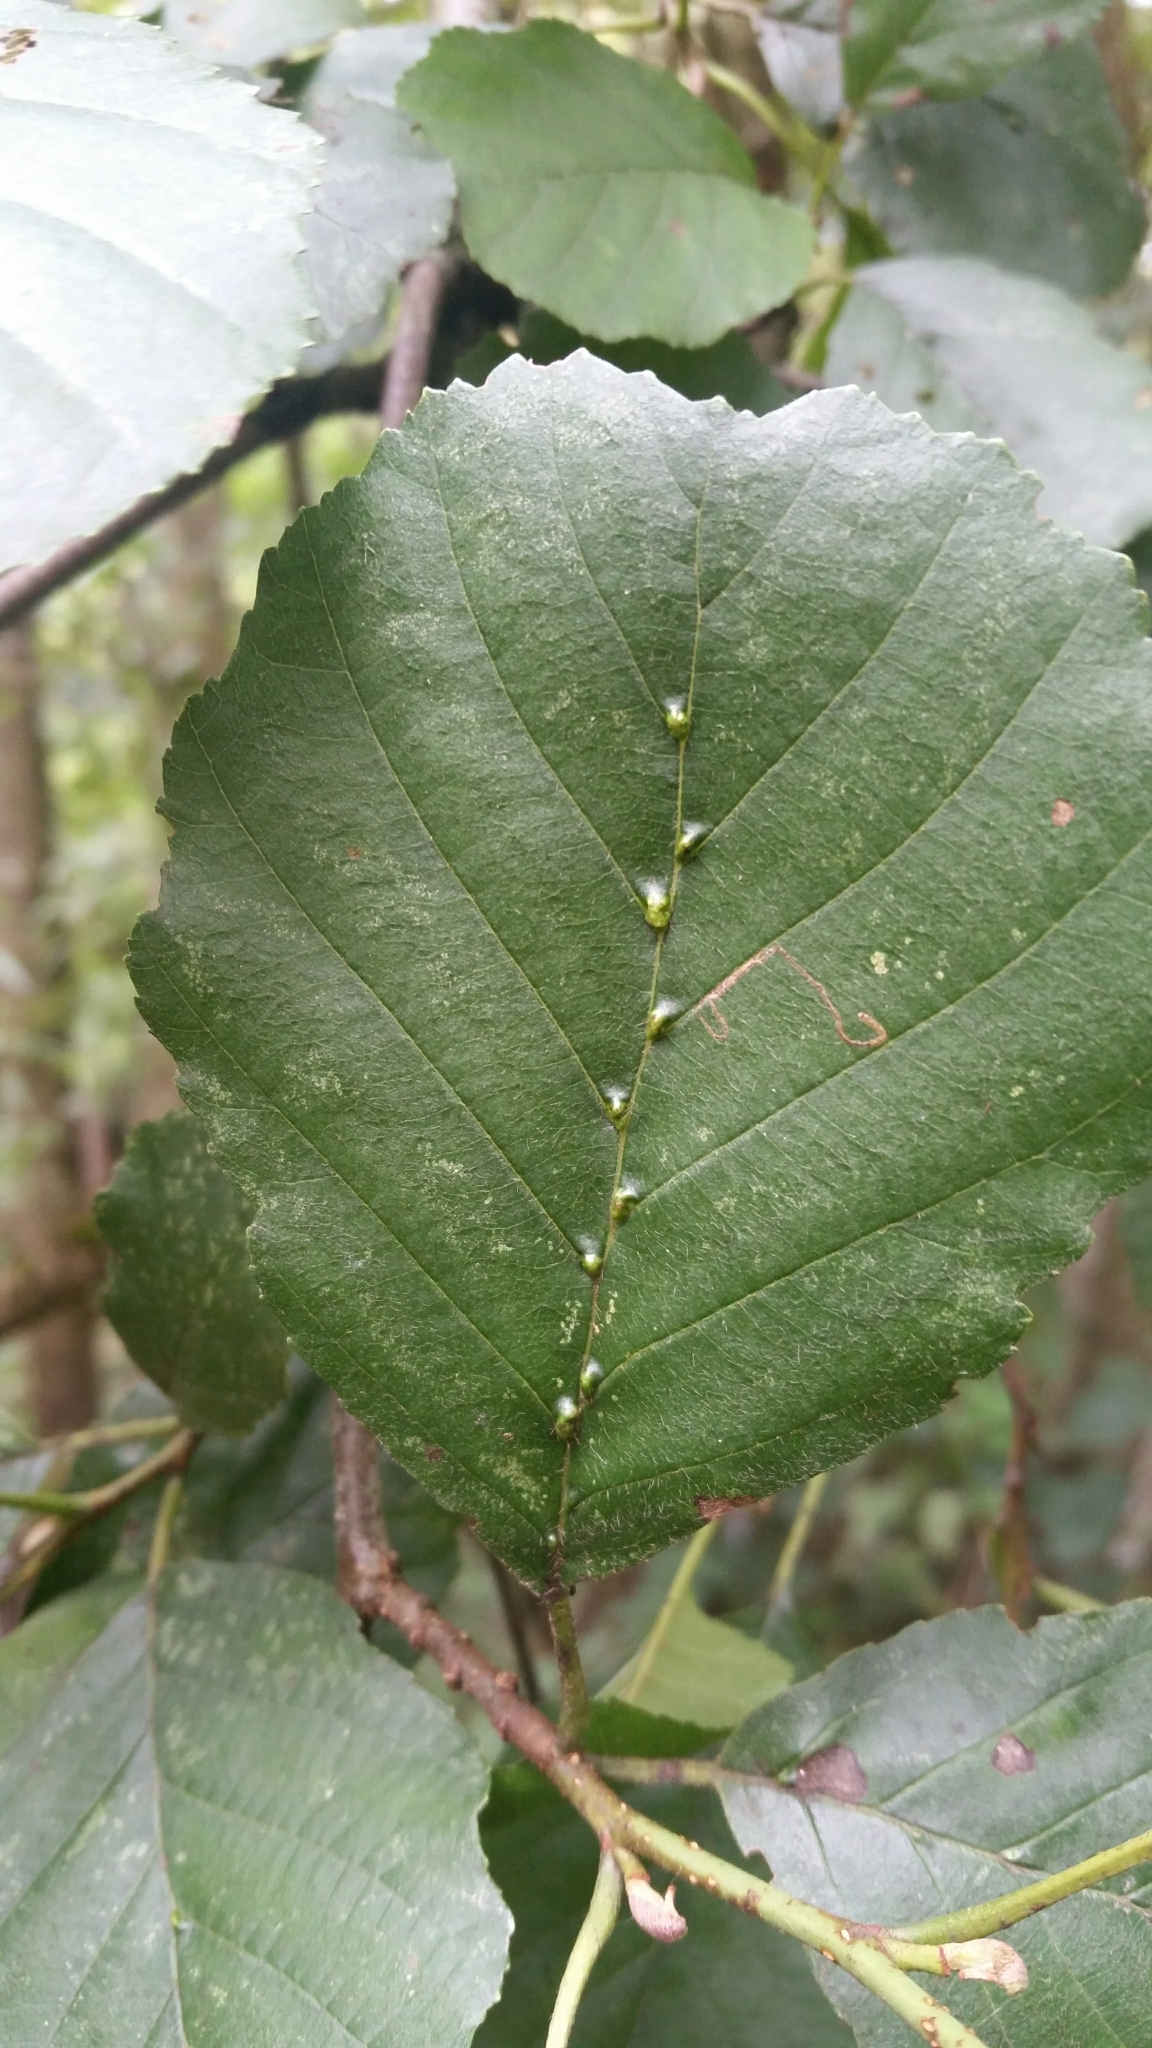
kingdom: Animalia
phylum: Arthropoda
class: Arachnida
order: Trombidiformes
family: Eriophyidae
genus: Eriophyes
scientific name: Eriophyes inangulis
